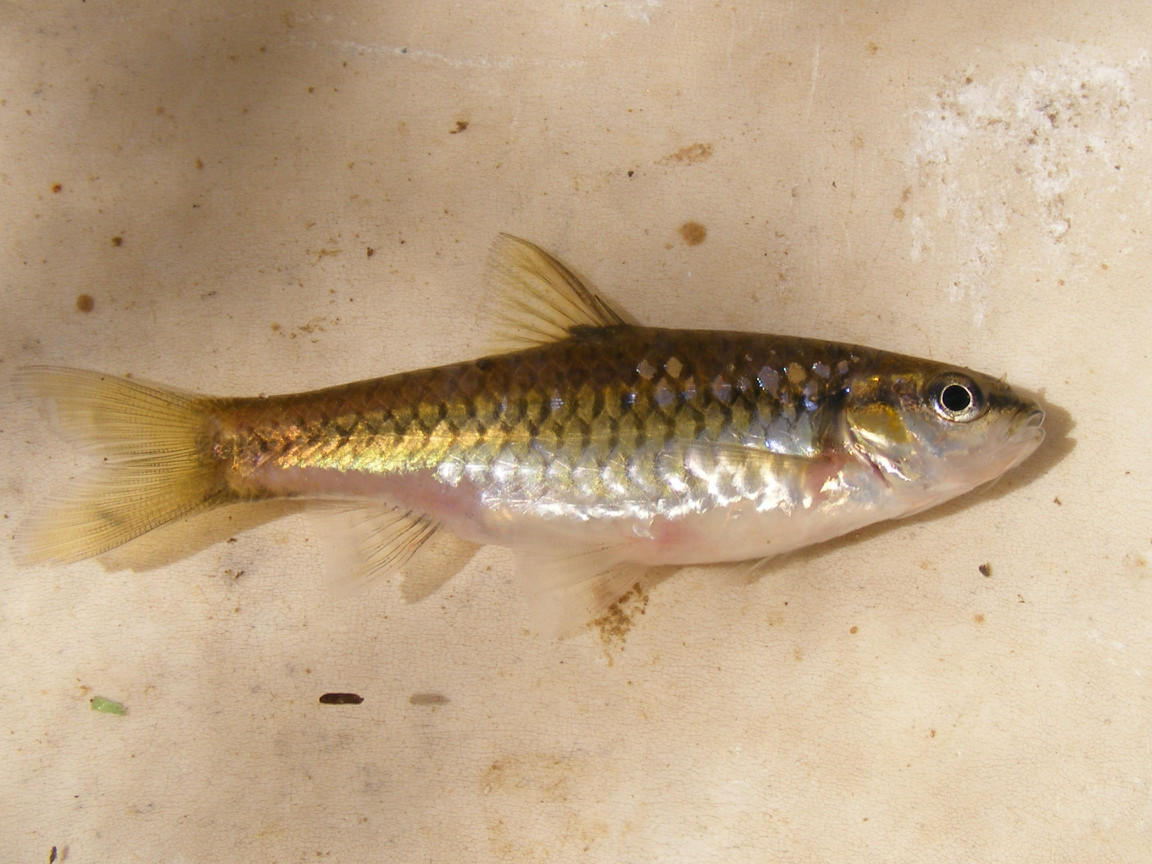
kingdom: Animalia
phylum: Chordata
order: Cypriniformes
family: Cyprinidae
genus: Enteromius
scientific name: Enteromius eutaenia
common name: Orangefin barb
